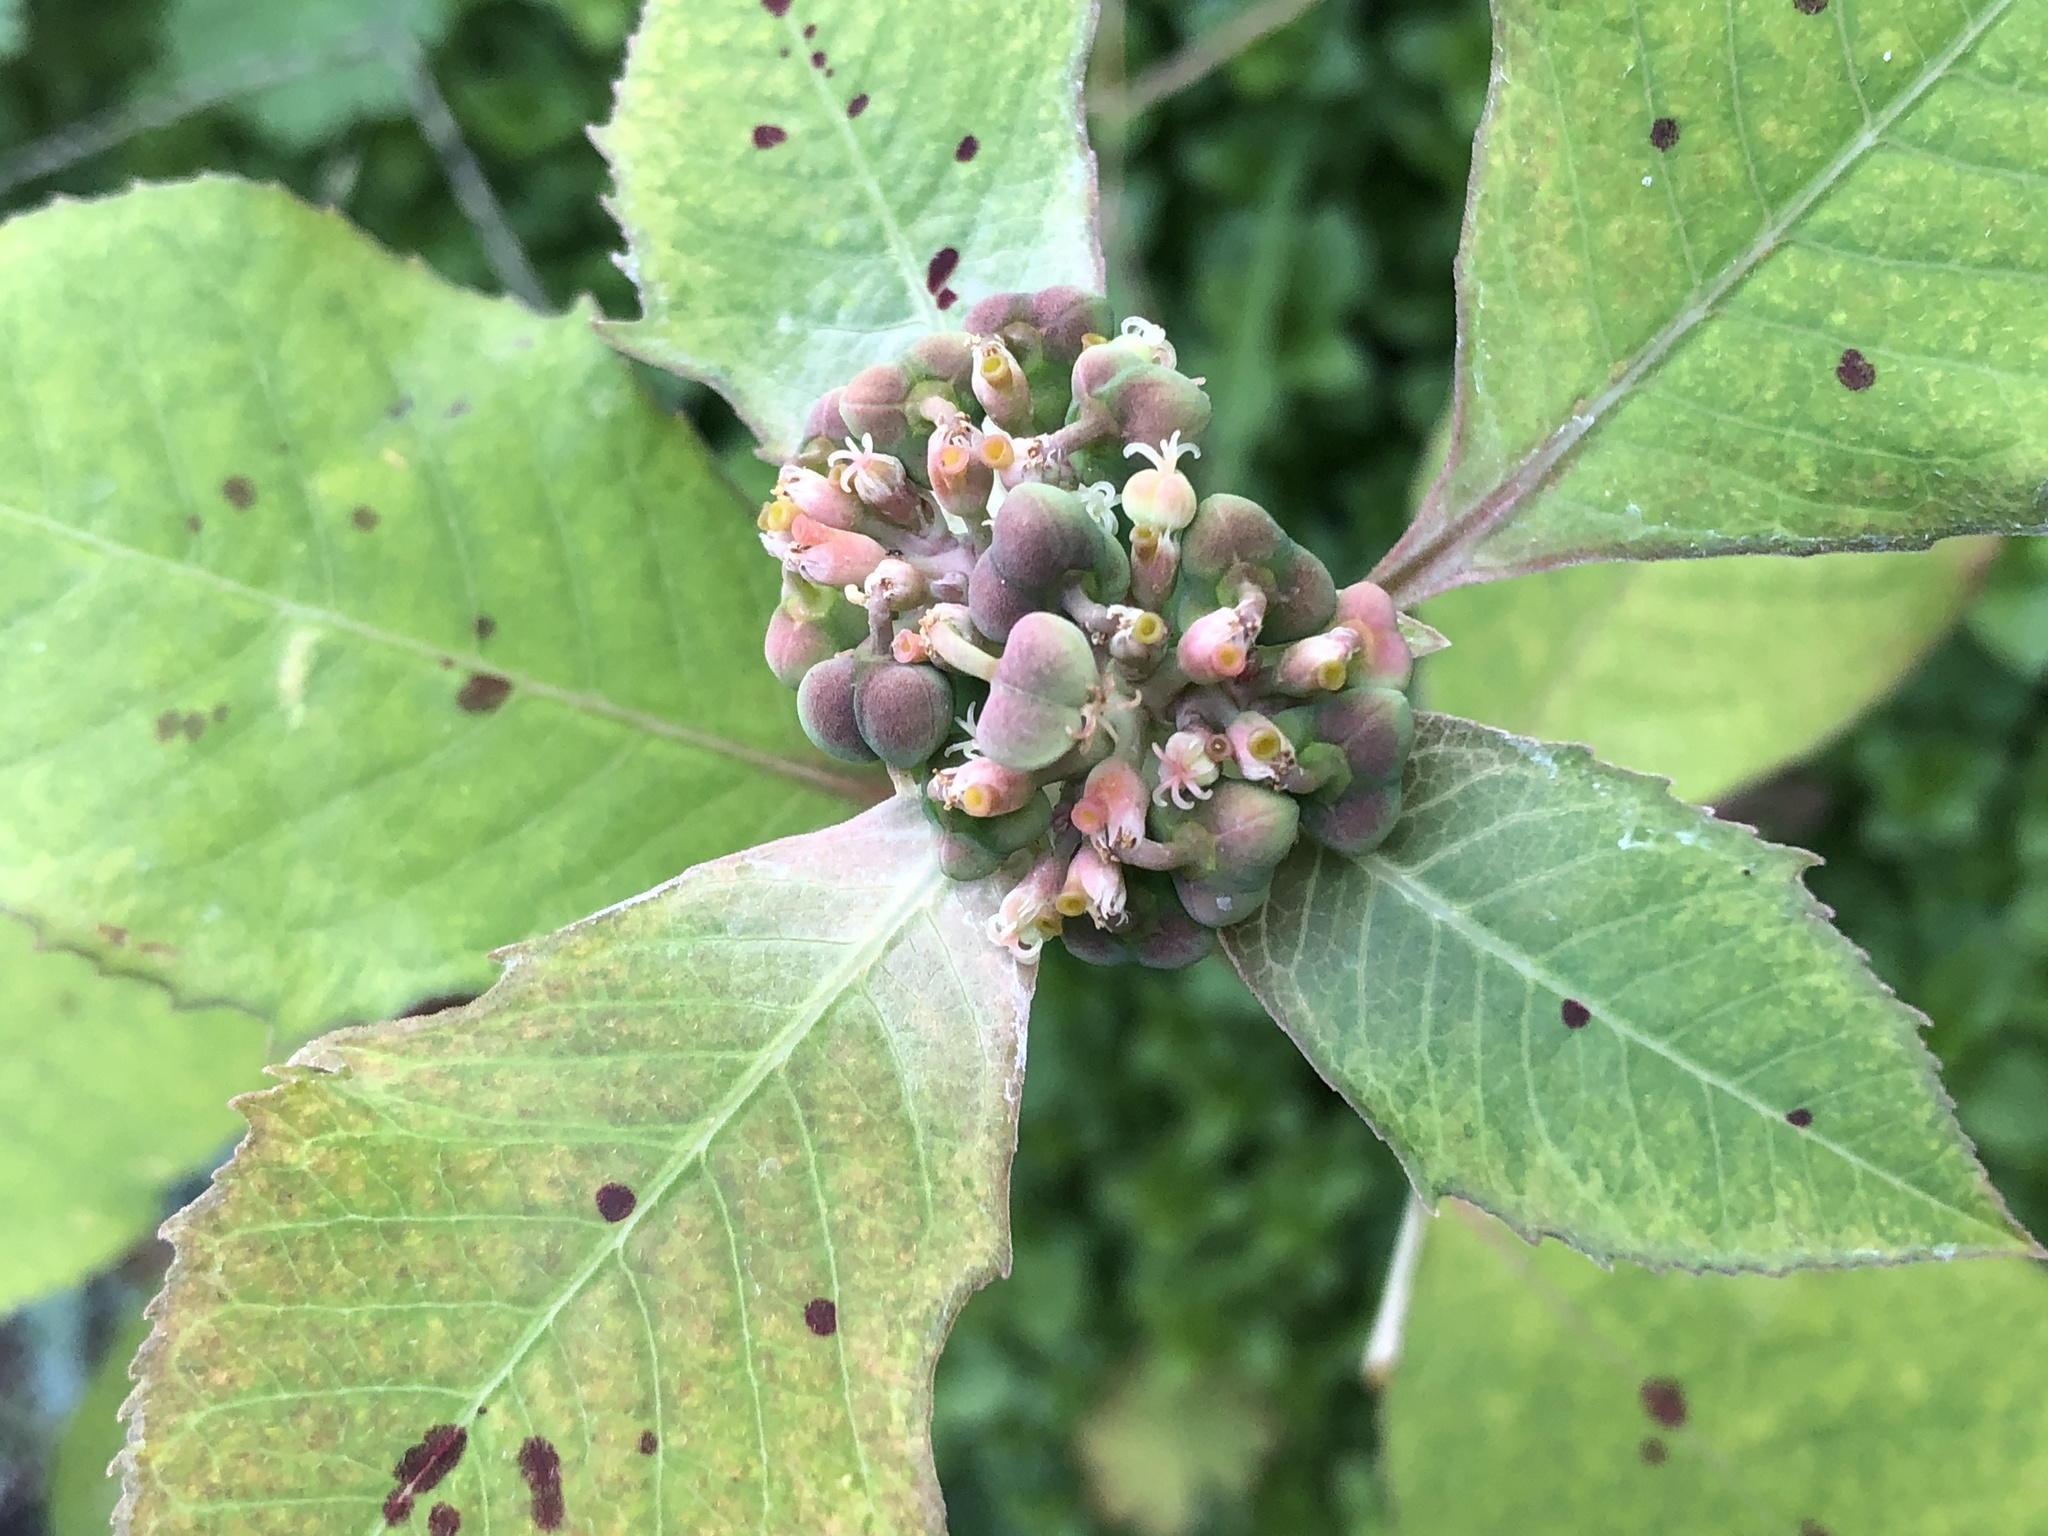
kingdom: Plantae
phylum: Tracheophyta
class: Magnoliopsida
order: Malpighiales
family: Euphorbiaceae
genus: Euphorbia
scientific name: Euphorbia heterophylla
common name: Mexican fireplant
